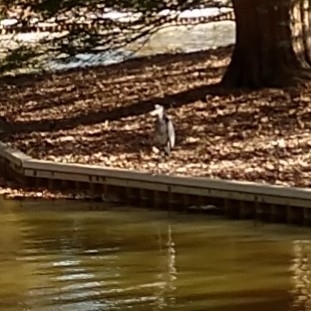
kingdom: Animalia
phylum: Chordata
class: Aves
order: Pelecaniformes
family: Ardeidae
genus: Ardea
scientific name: Ardea herodias
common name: Great blue heron
